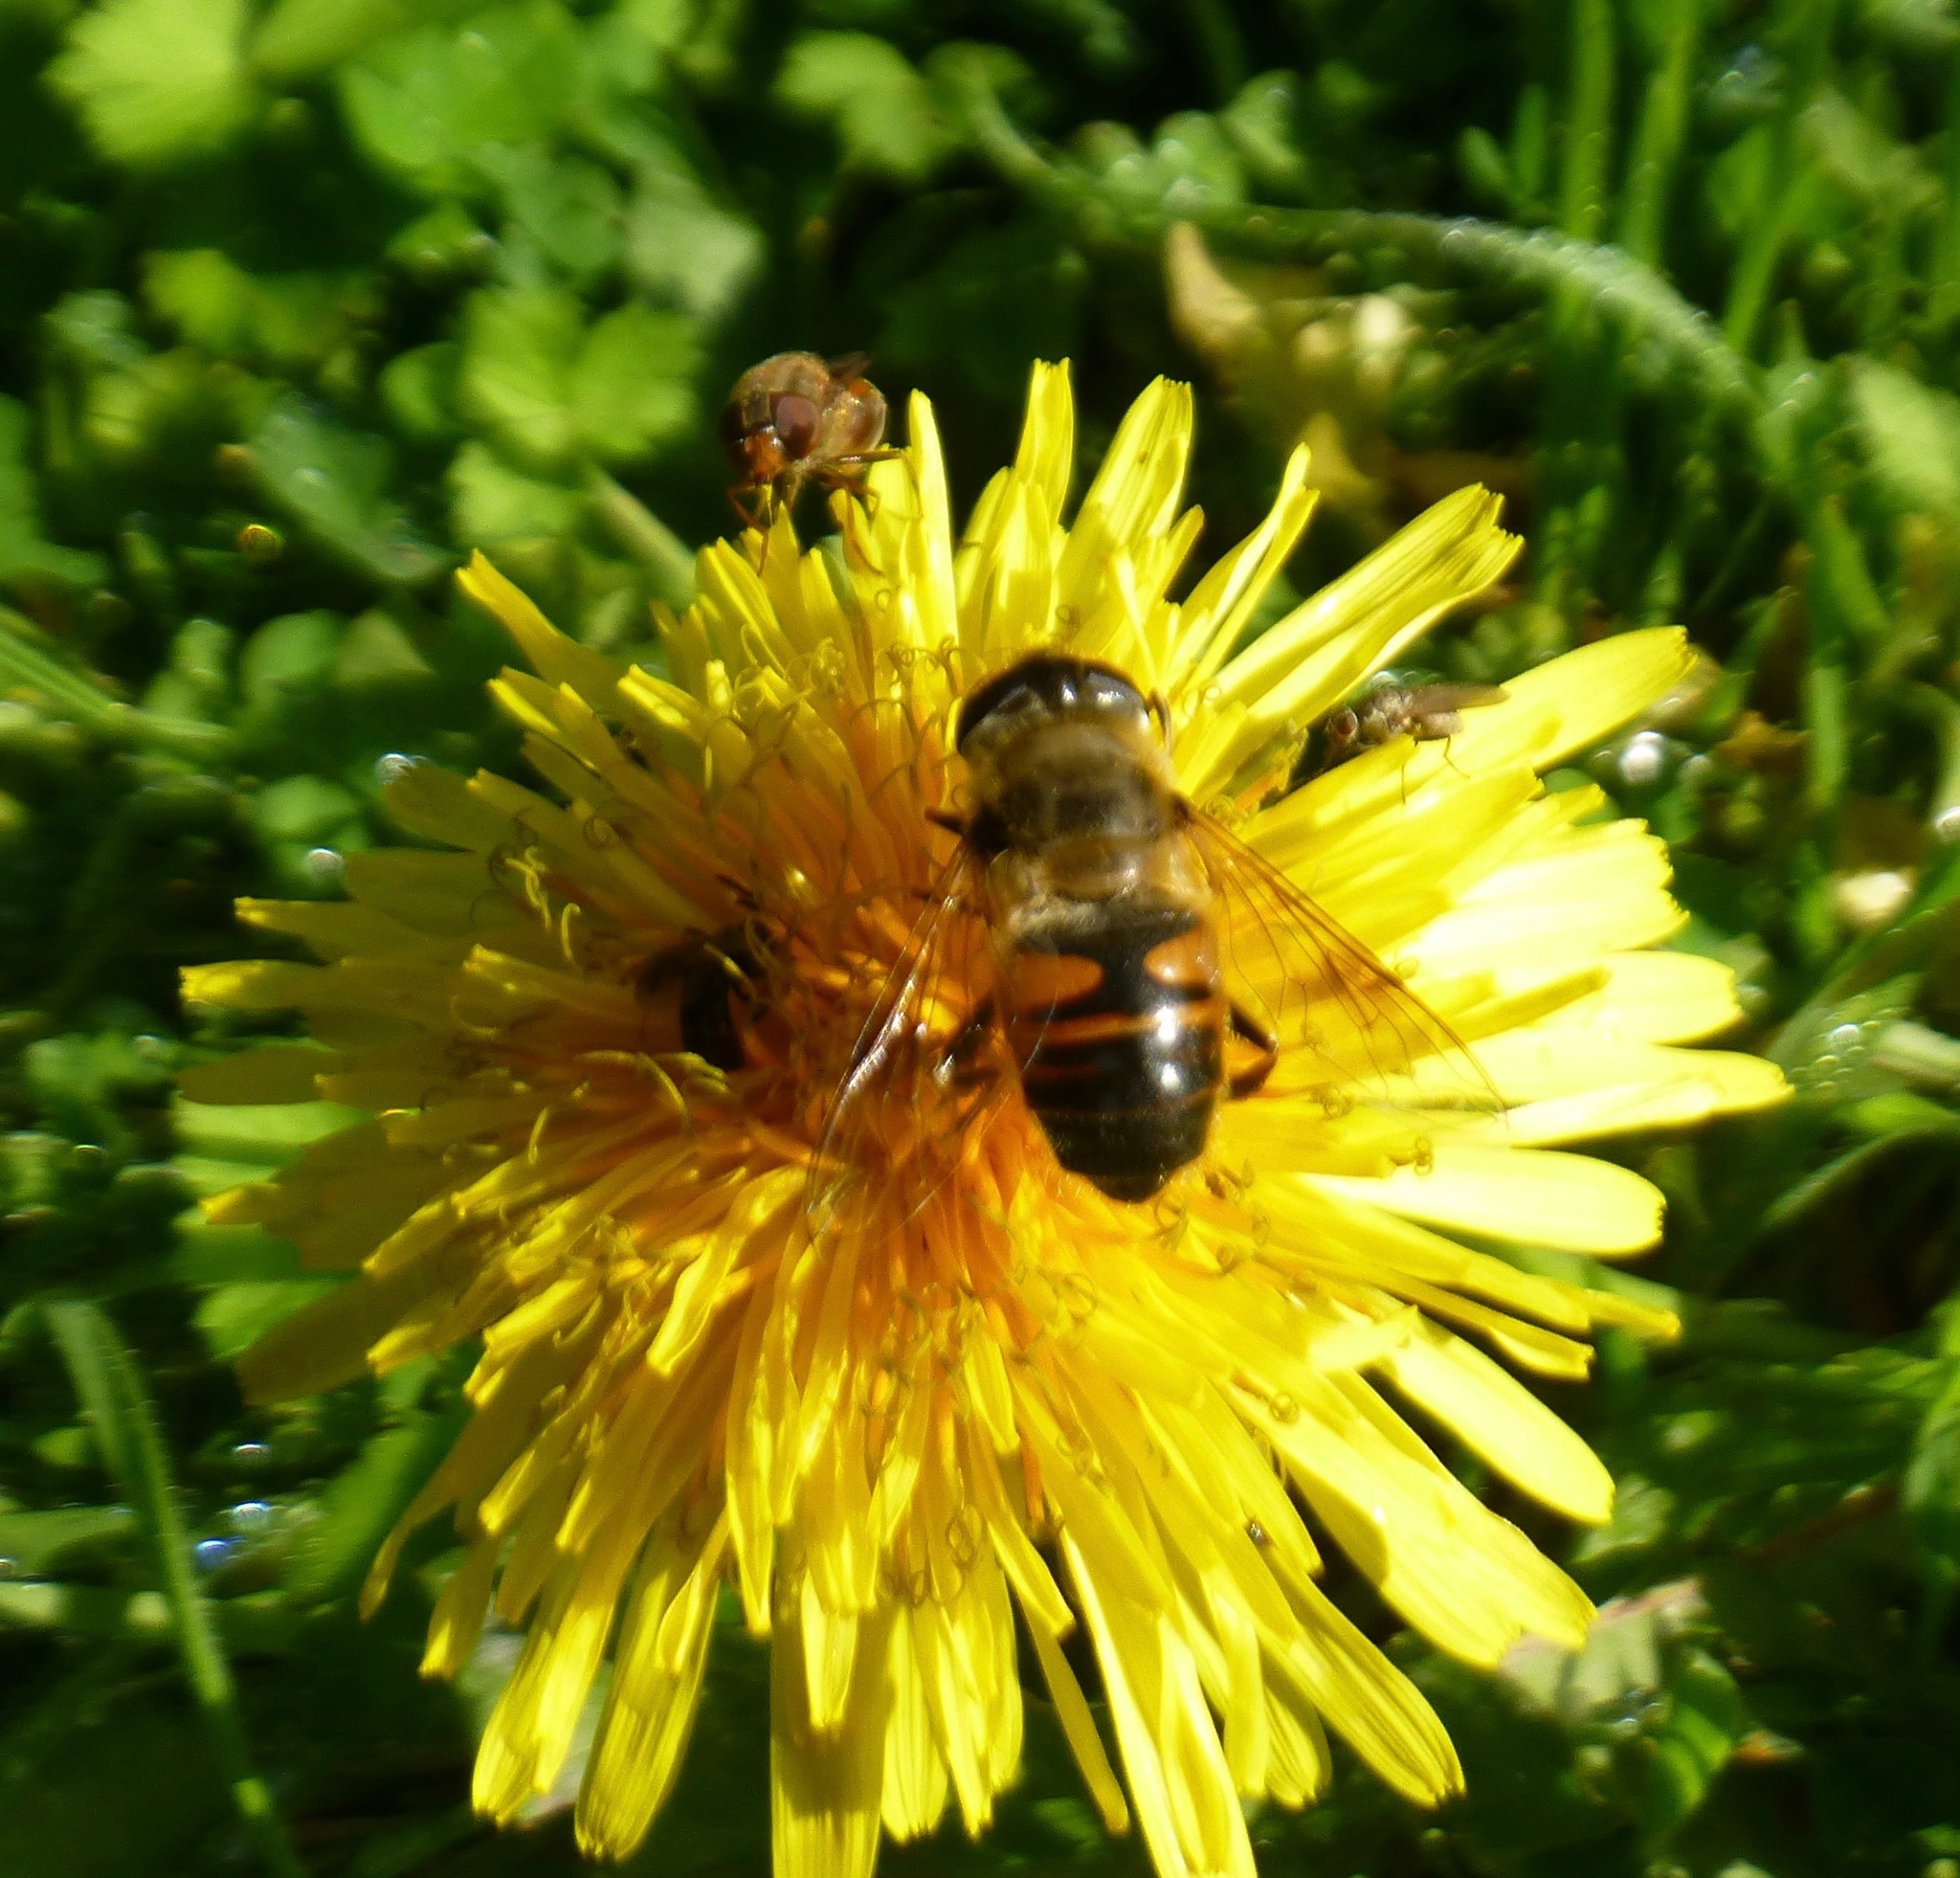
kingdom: Animalia
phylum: Arthropoda
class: Insecta
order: Diptera
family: Syrphidae
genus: Eristalis
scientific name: Eristalis tenax
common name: Drone fly
